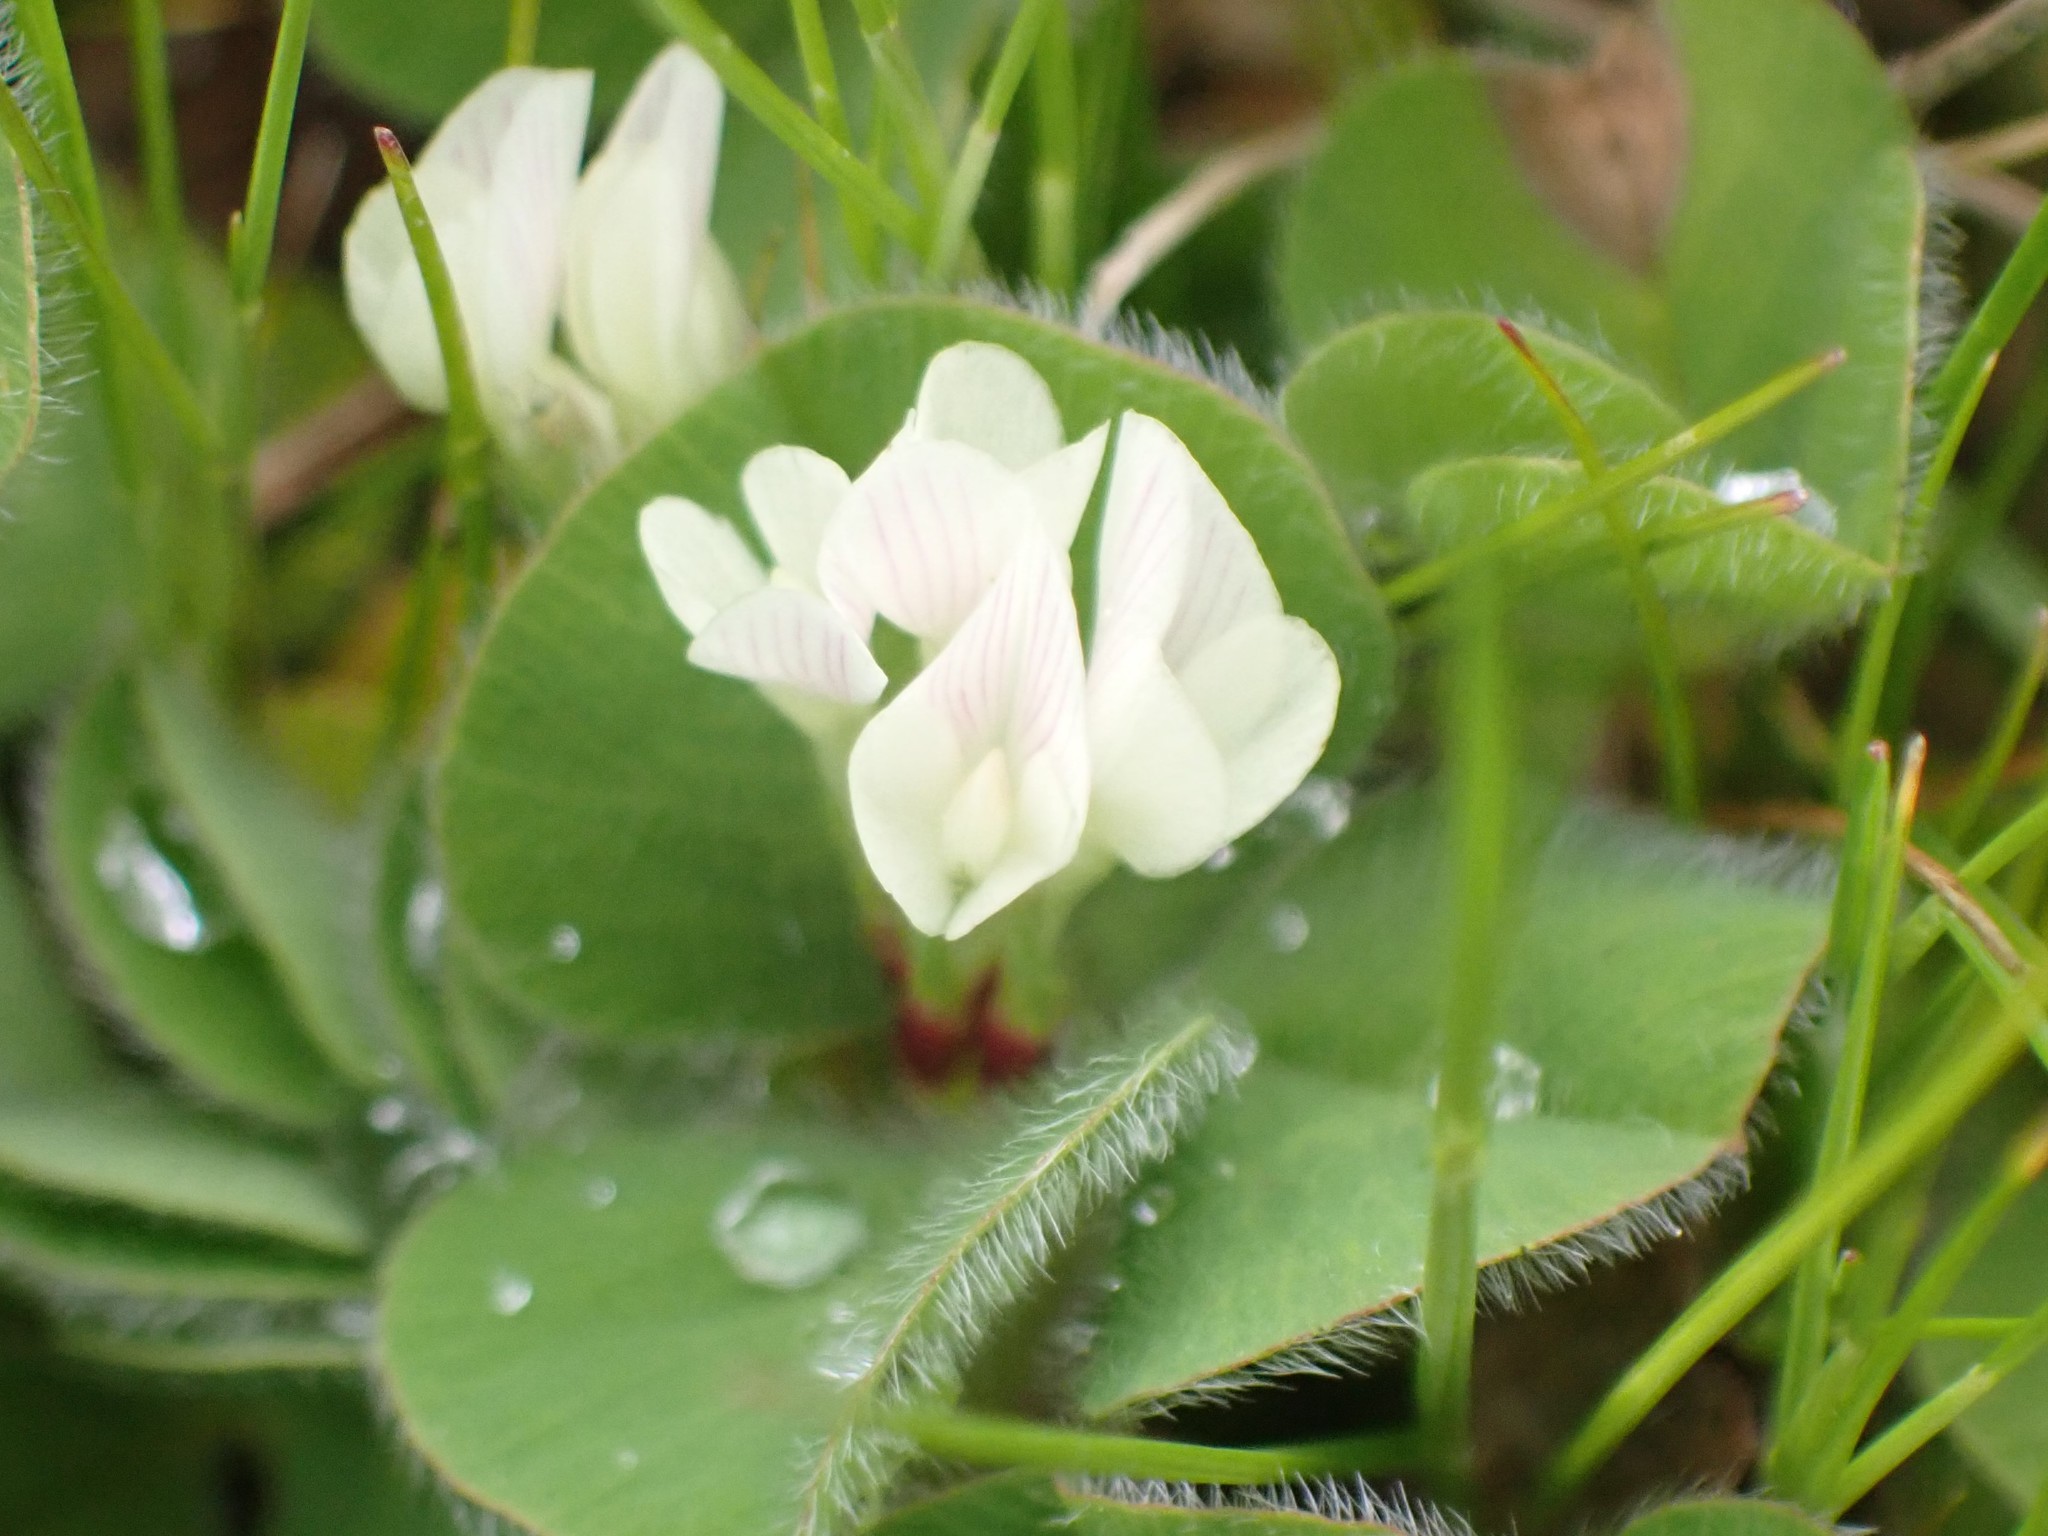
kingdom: Plantae
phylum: Tracheophyta
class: Magnoliopsida
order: Fabales
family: Fabaceae
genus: Trifolium
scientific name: Trifolium subterraneum
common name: Subterranean clover
